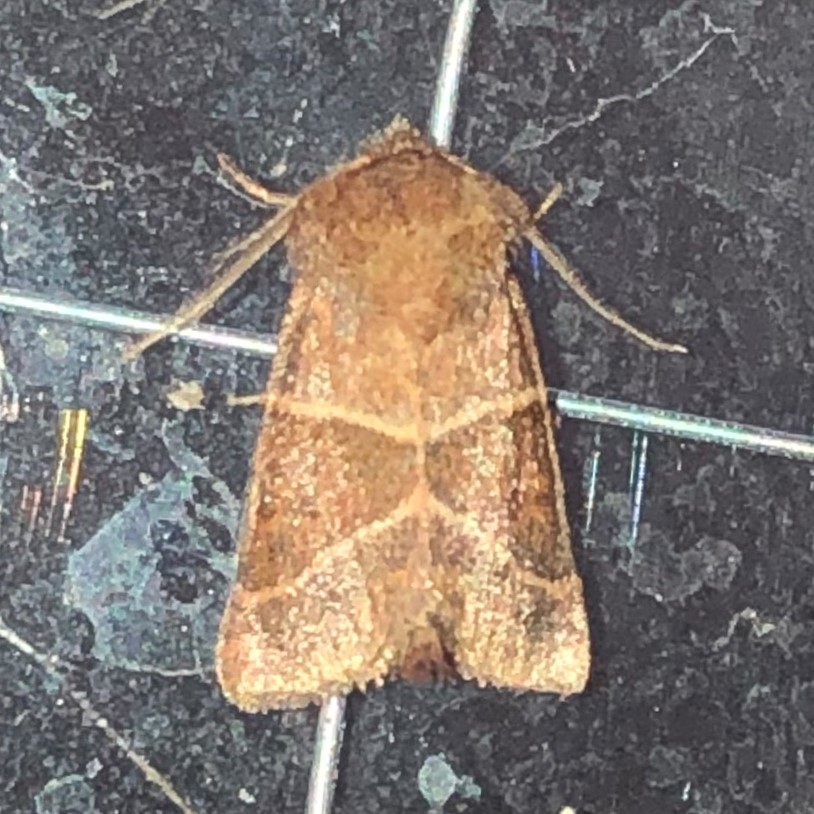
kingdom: Animalia
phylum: Arthropoda
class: Insecta
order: Lepidoptera
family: Noctuidae
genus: Lemmeria
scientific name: Lemmeria digitalis
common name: Fingered lemmeria moth
